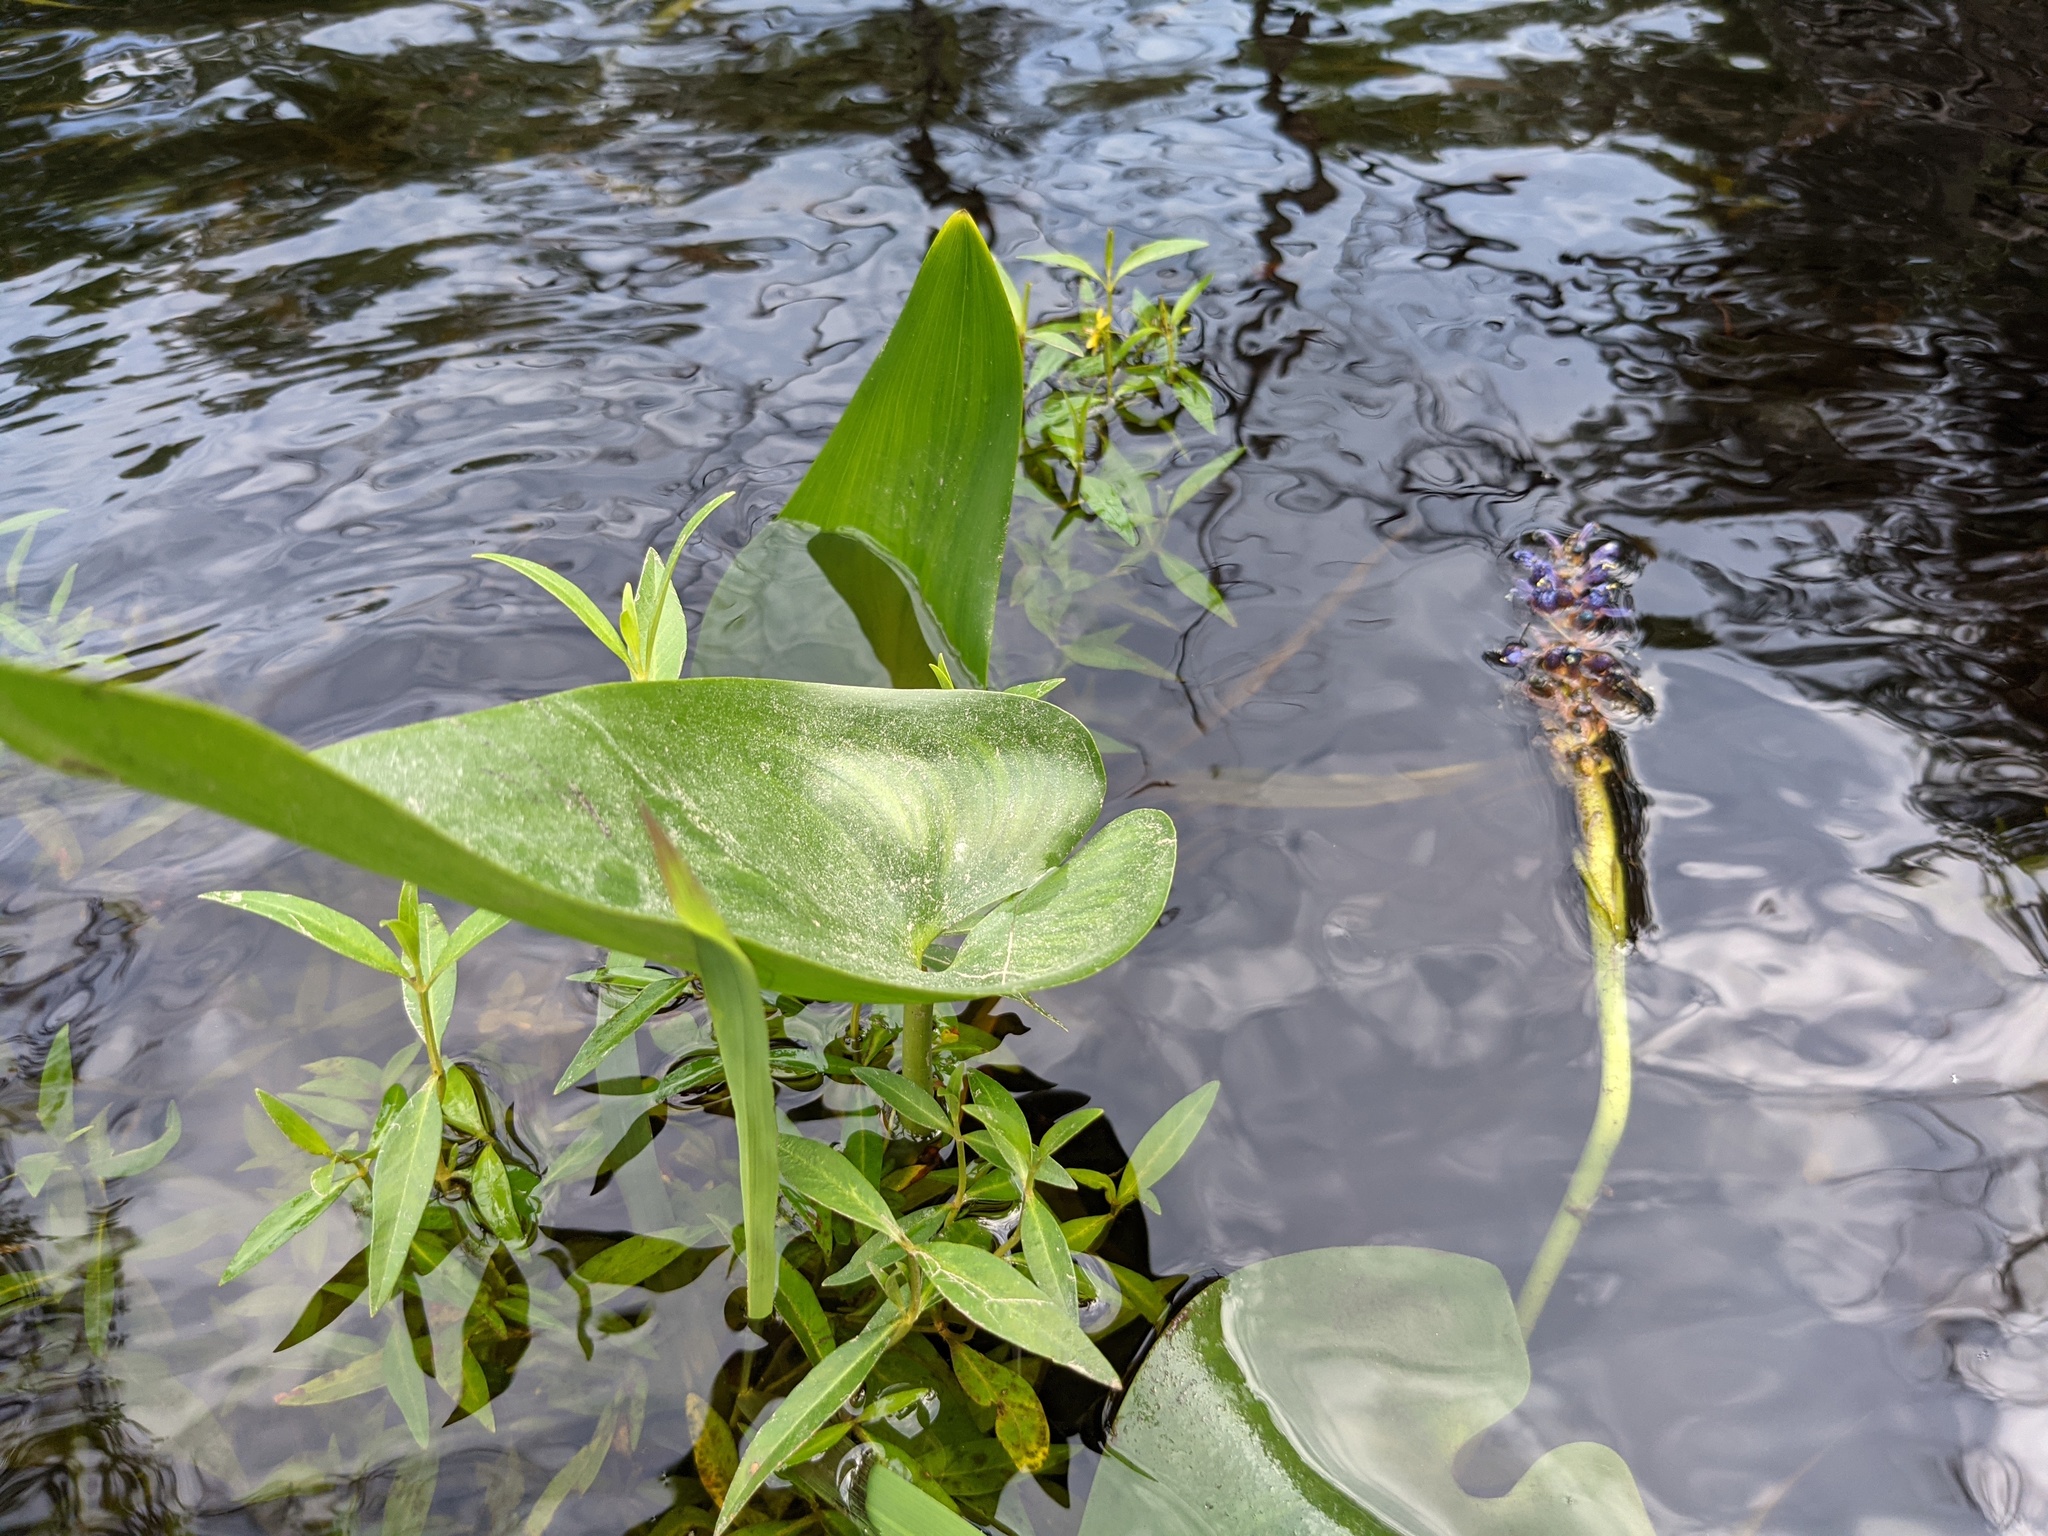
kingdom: Plantae
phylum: Tracheophyta
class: Liliopsida
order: Commelinales
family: Pontederiaceae
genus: Pontederia
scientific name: Pontederia cordata
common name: Pickerelweed
